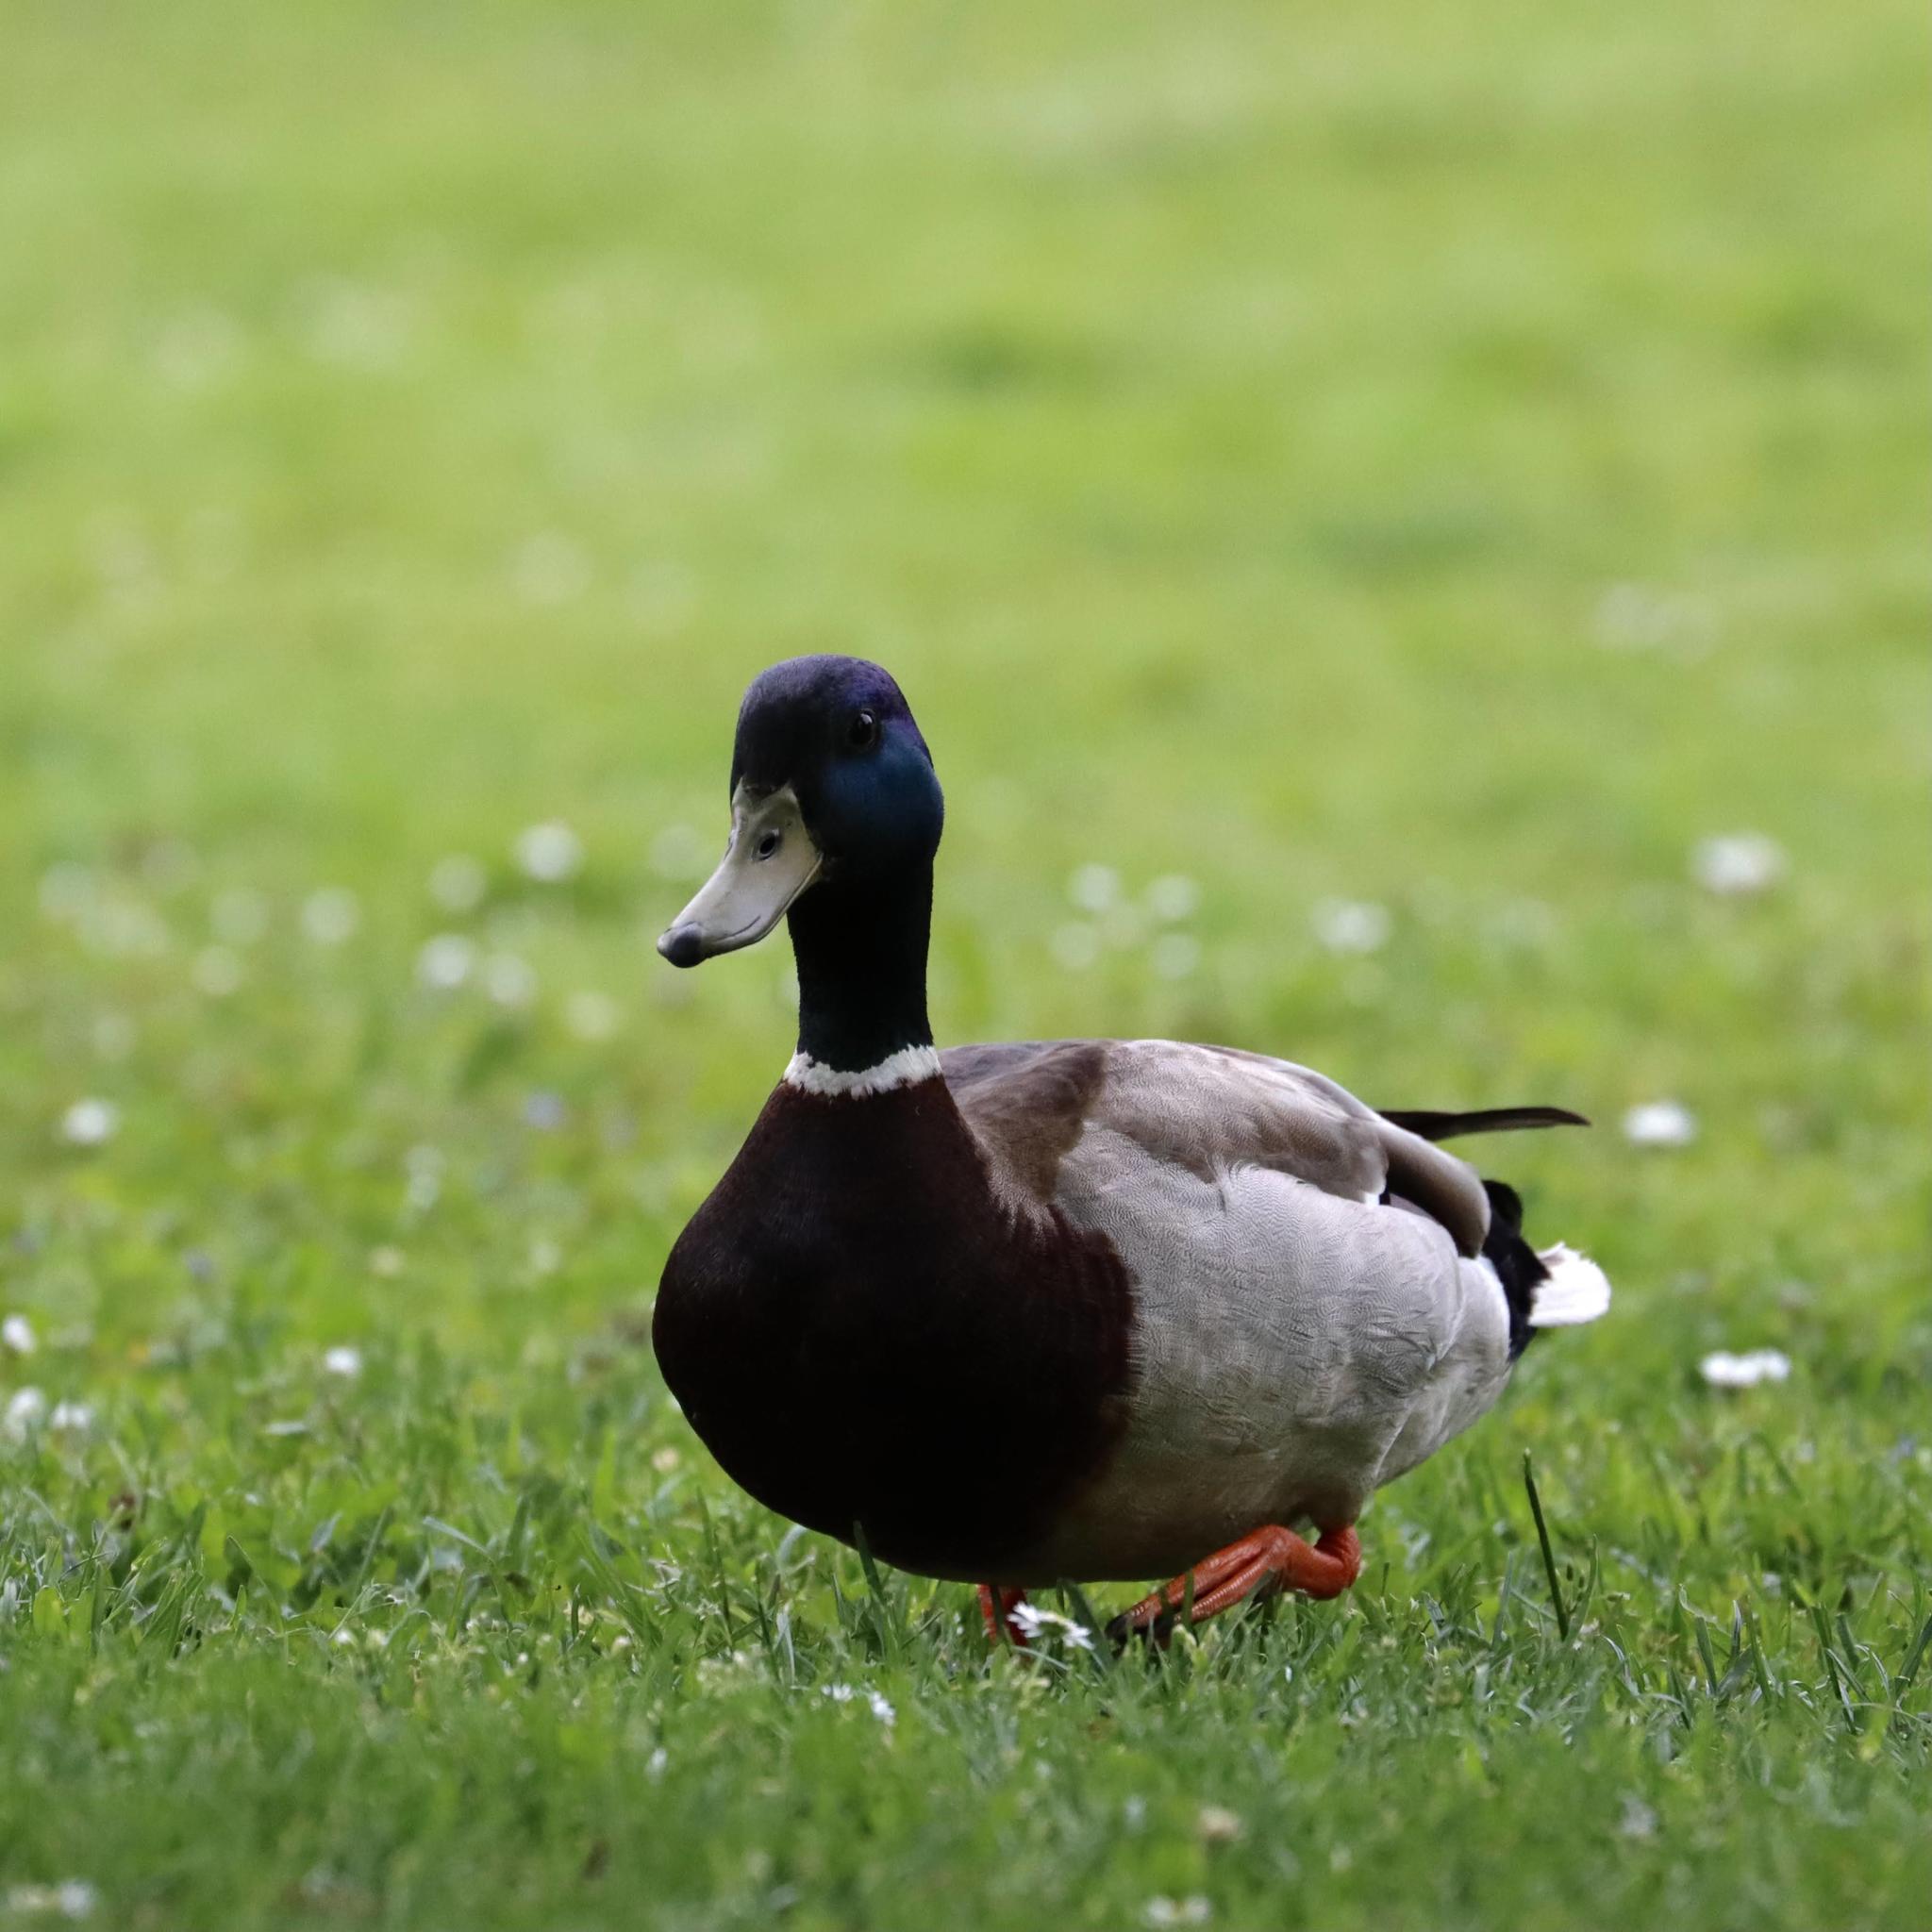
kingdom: Animalia
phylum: Chordata
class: Aves
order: Anseriformes
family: Anatidae
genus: Anas
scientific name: Anas platyrhynchos
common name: Mallard
